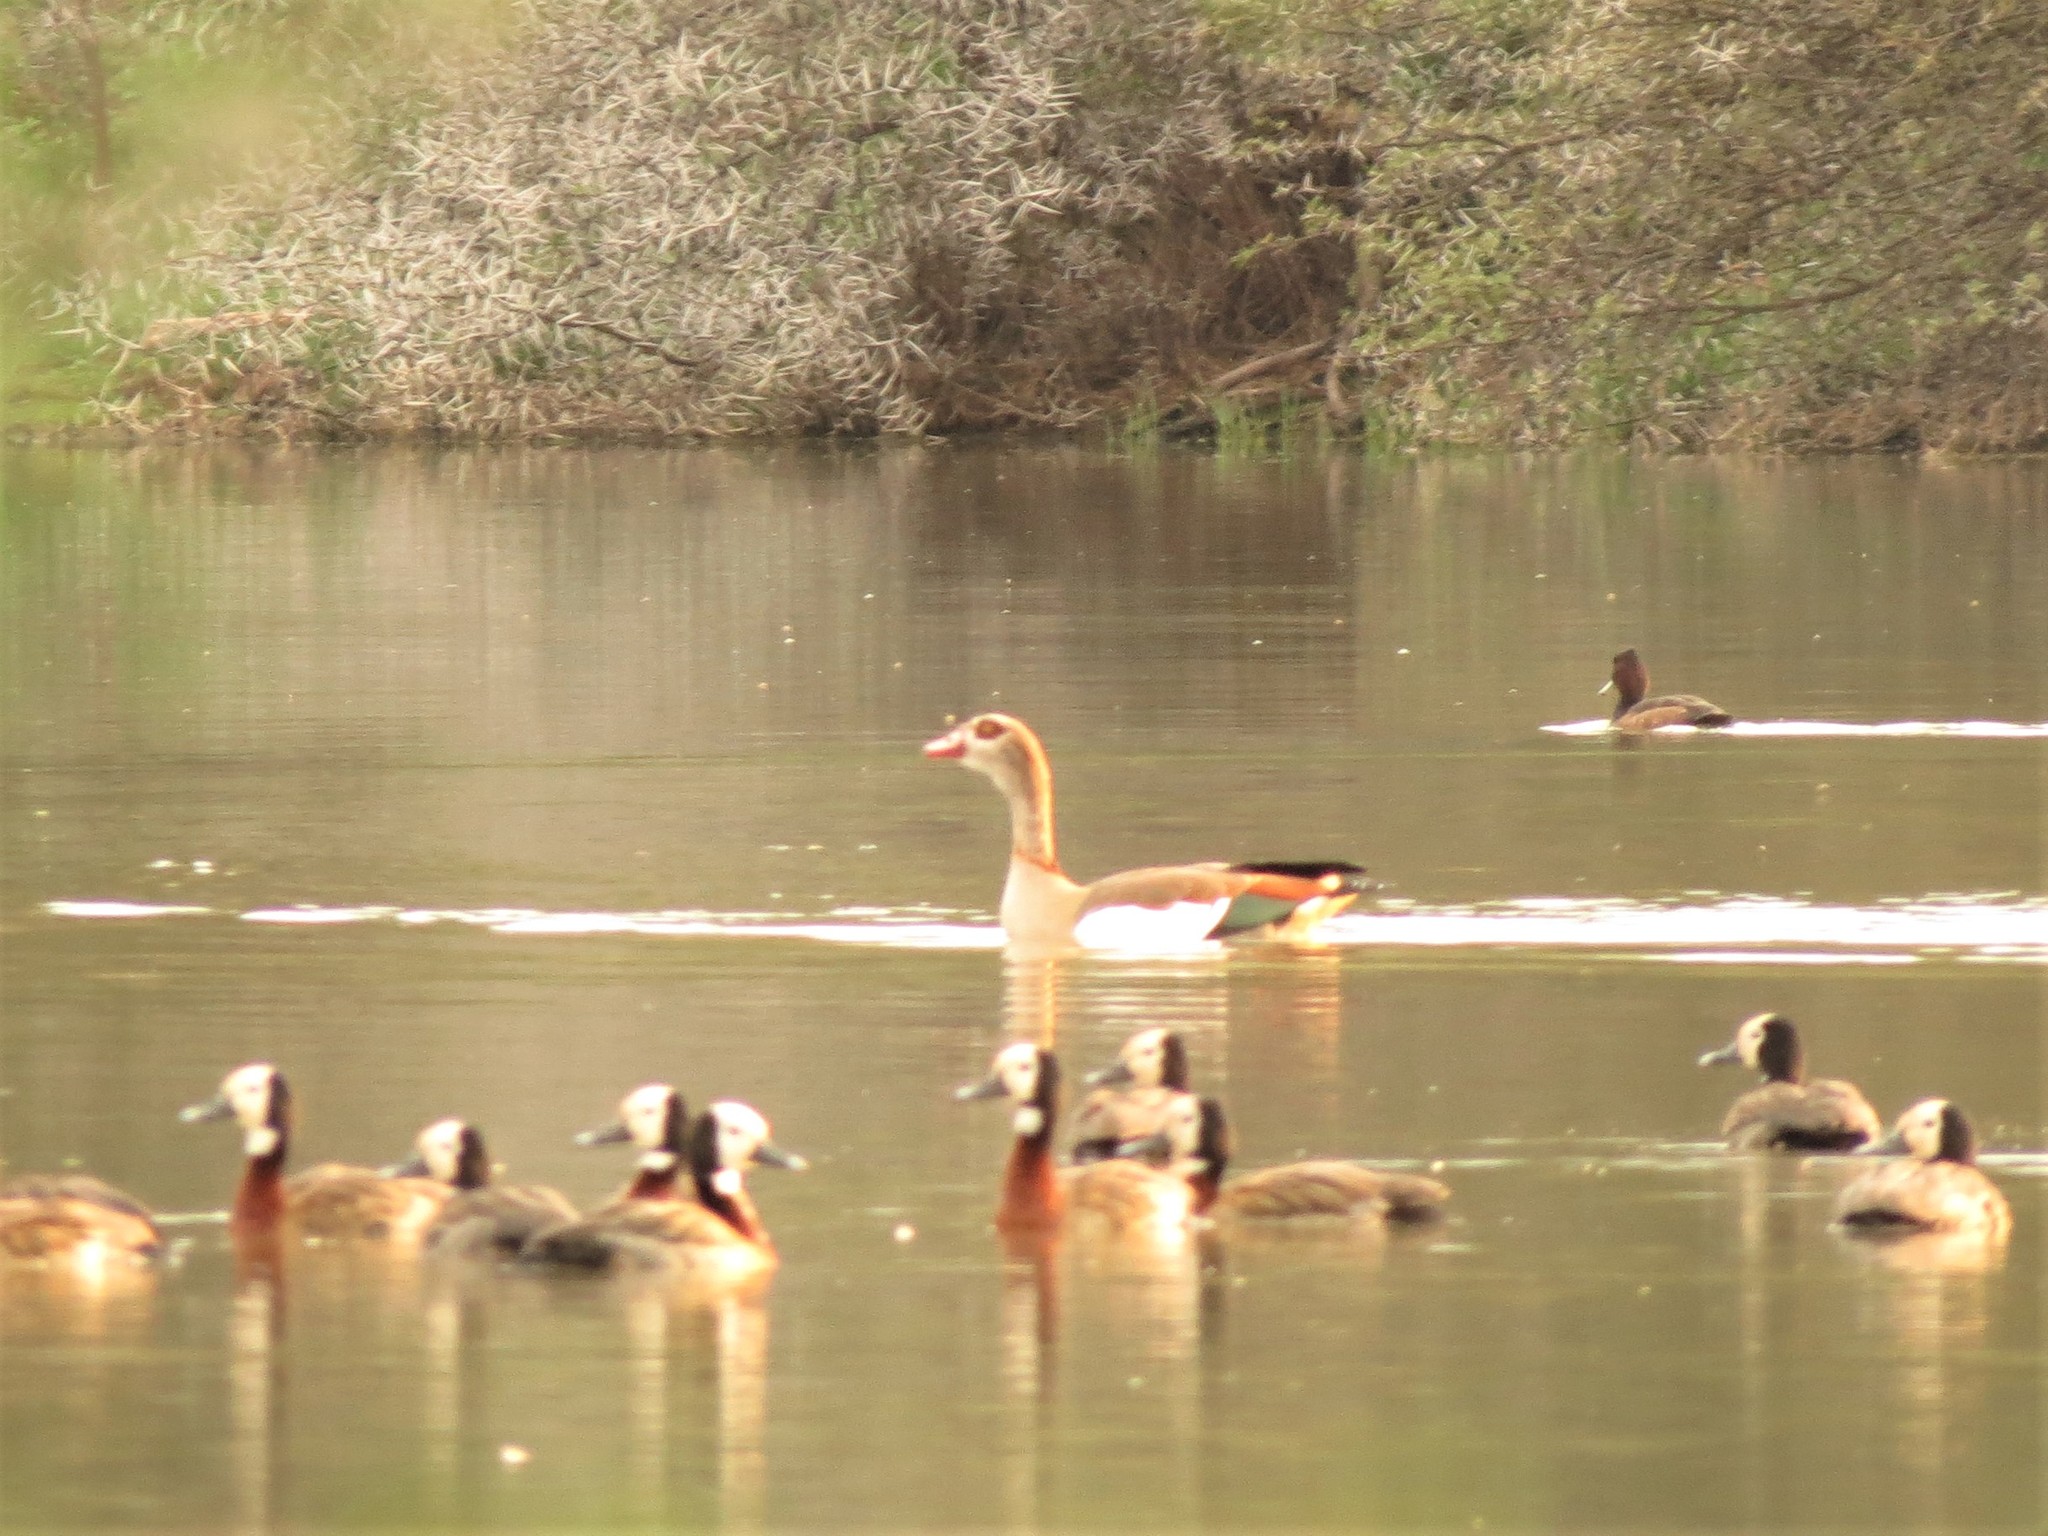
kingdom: Animalia
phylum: Chordata
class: Aves
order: Anseriformes
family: Anatidae
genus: Alopochen
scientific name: Alopochen aegyptiaca
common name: Egyptian goose
